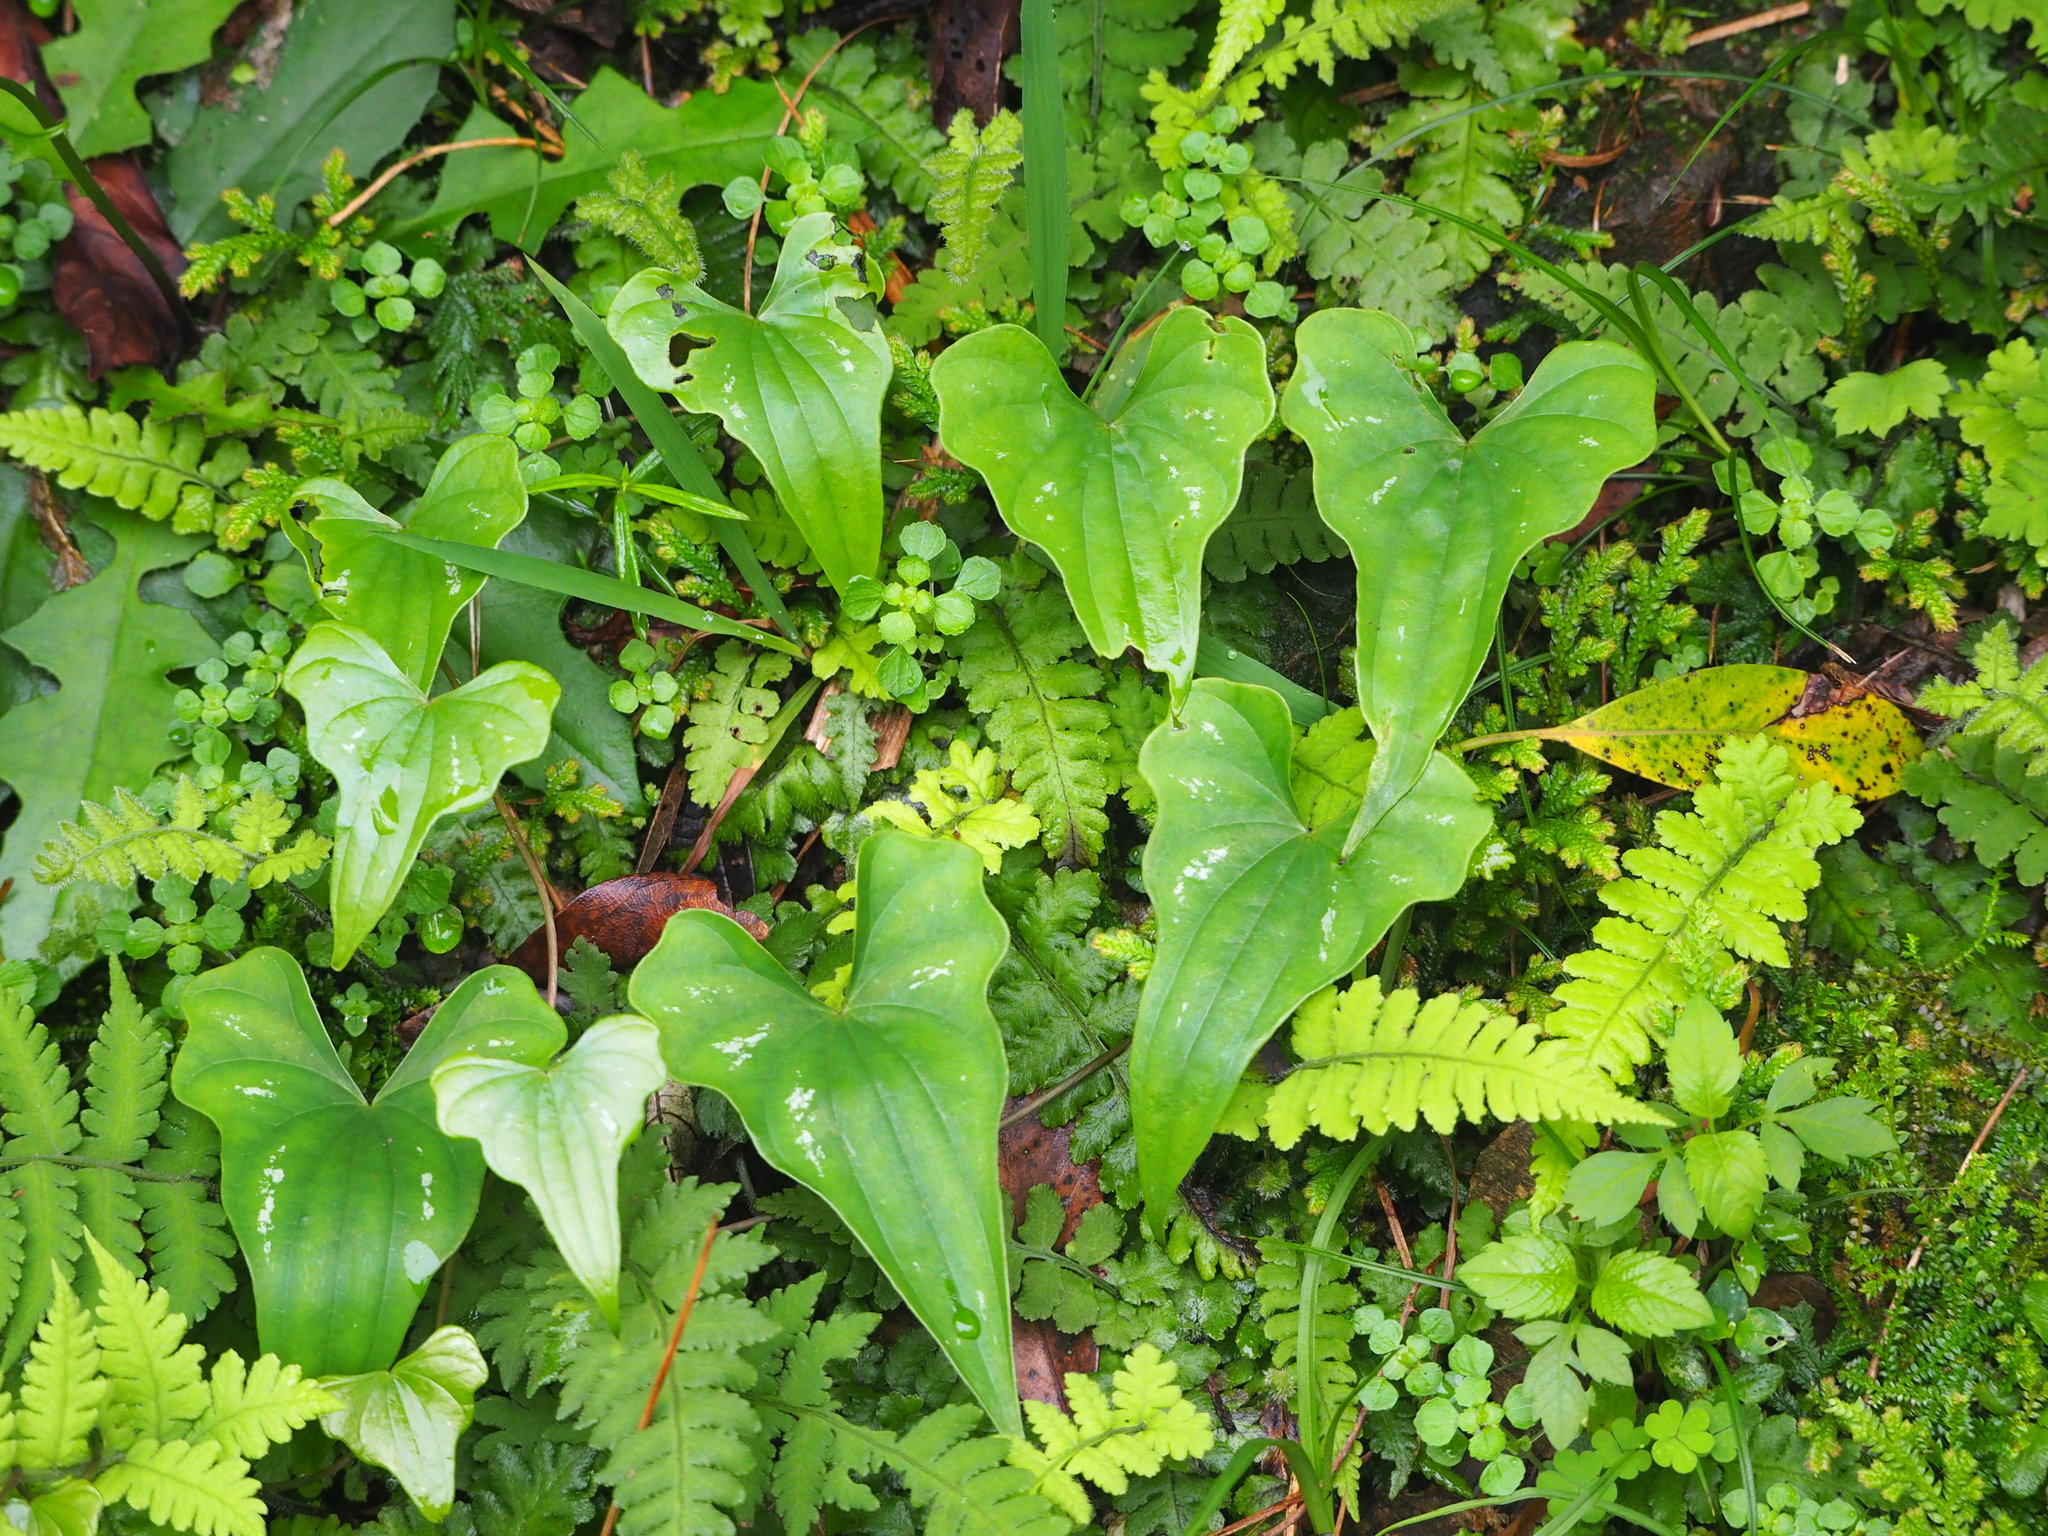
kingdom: Plantae
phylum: Tracheophyta
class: Liliopsida
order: Dioscoreales
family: Dioscoreaceae
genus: Dioscorea
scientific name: Dioscorea collettii
